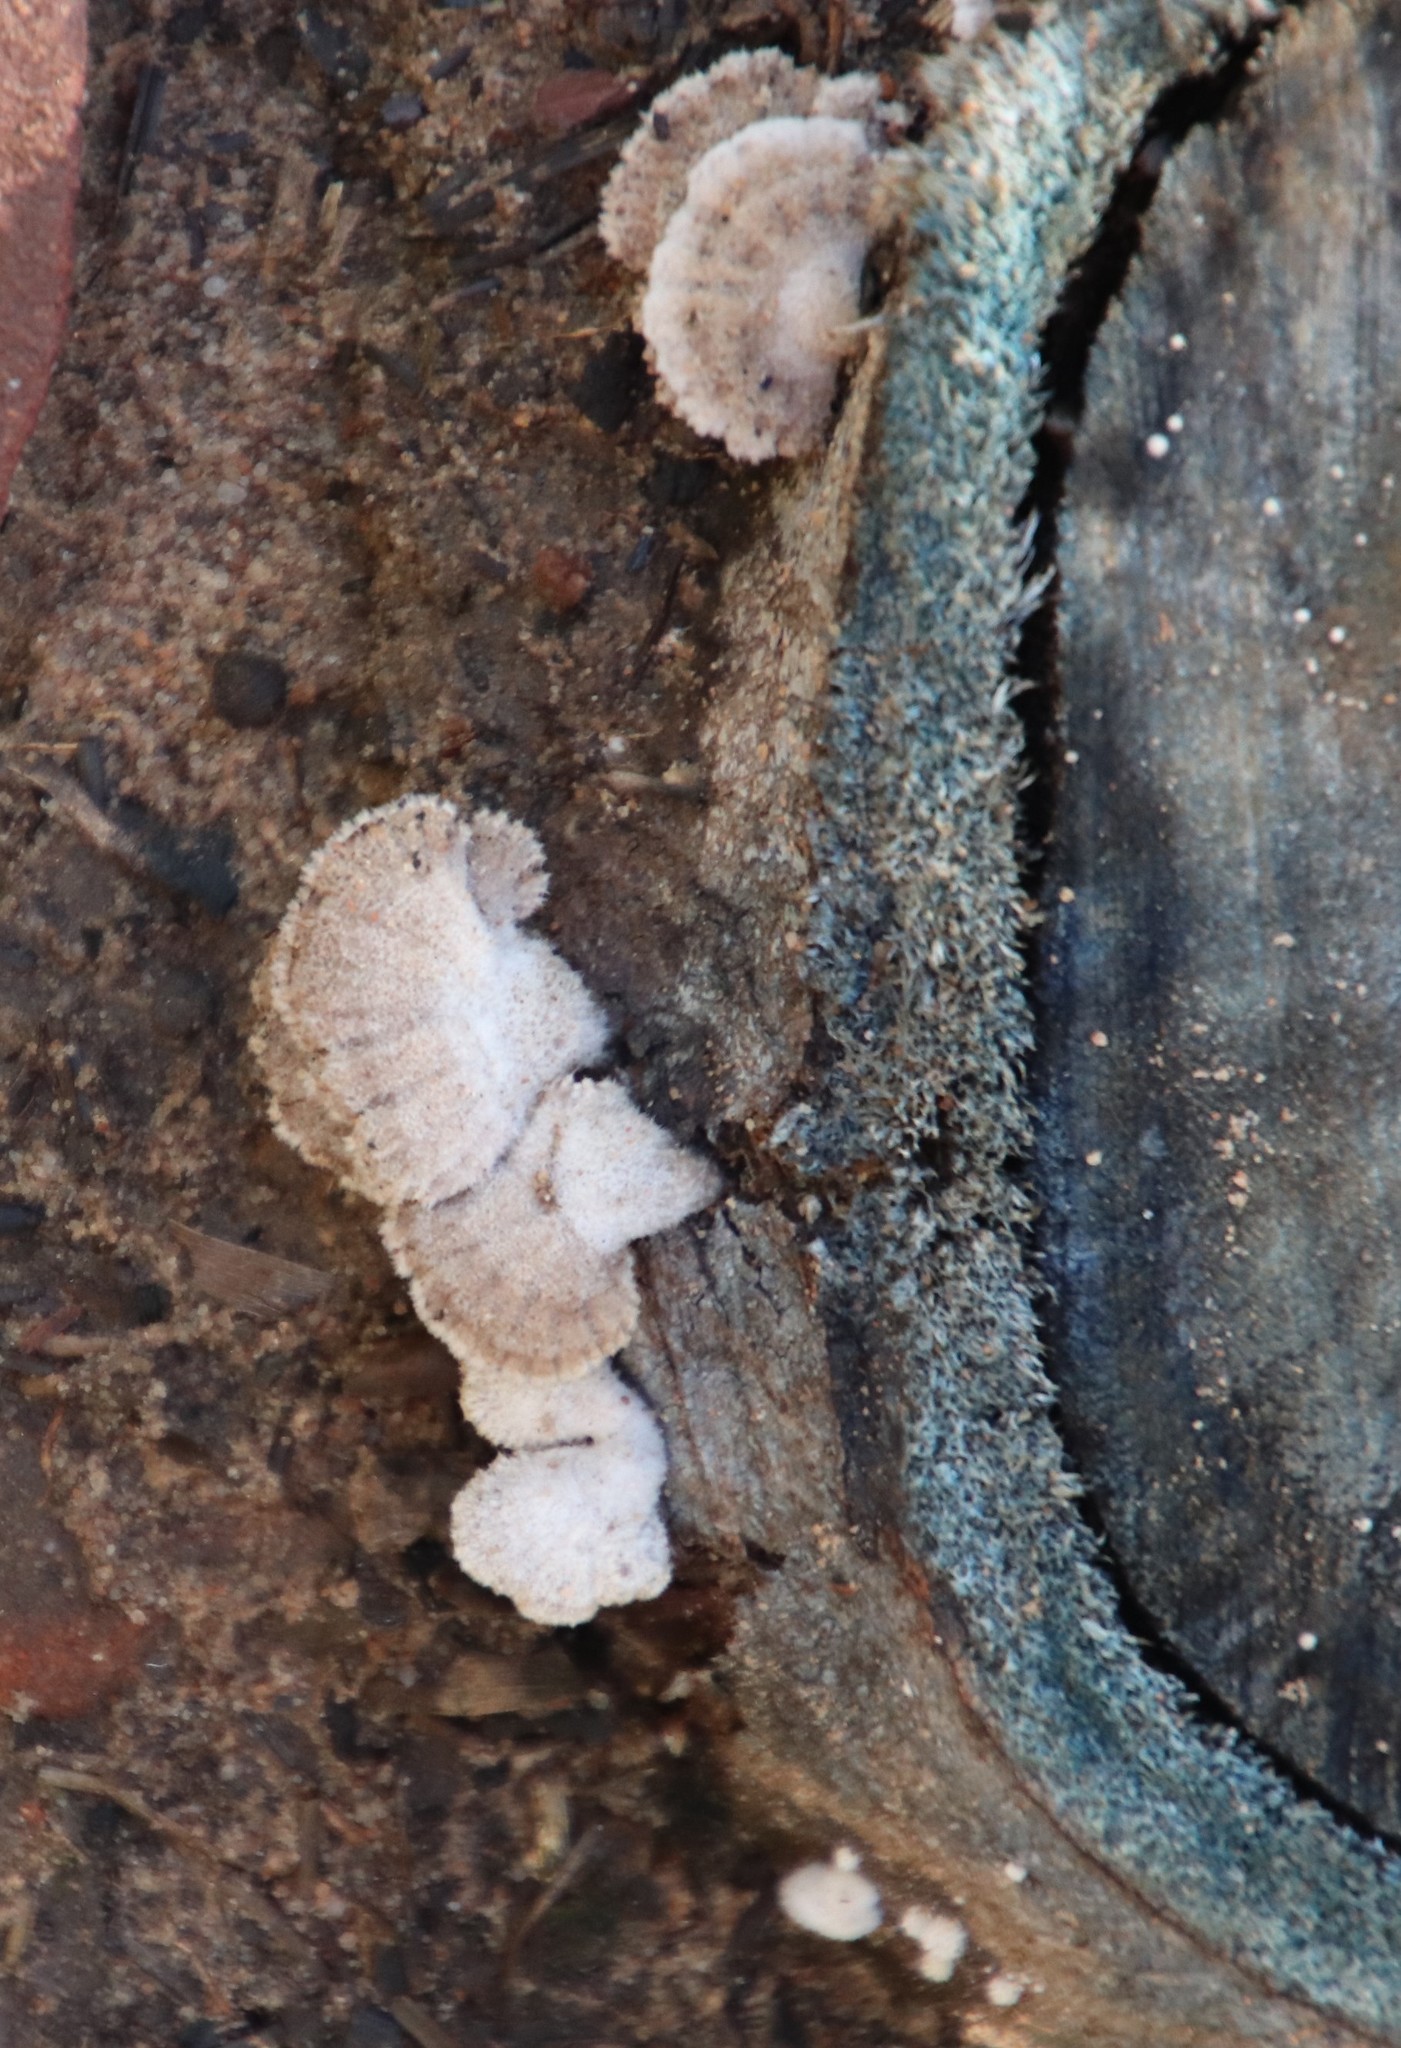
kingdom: Fungi
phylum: Basidiomycota
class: Agaricomycetes
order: Agaricales
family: Schizophyllaceae
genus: Schizophyllum
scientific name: Schizophyllum commune
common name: Common porecrust
